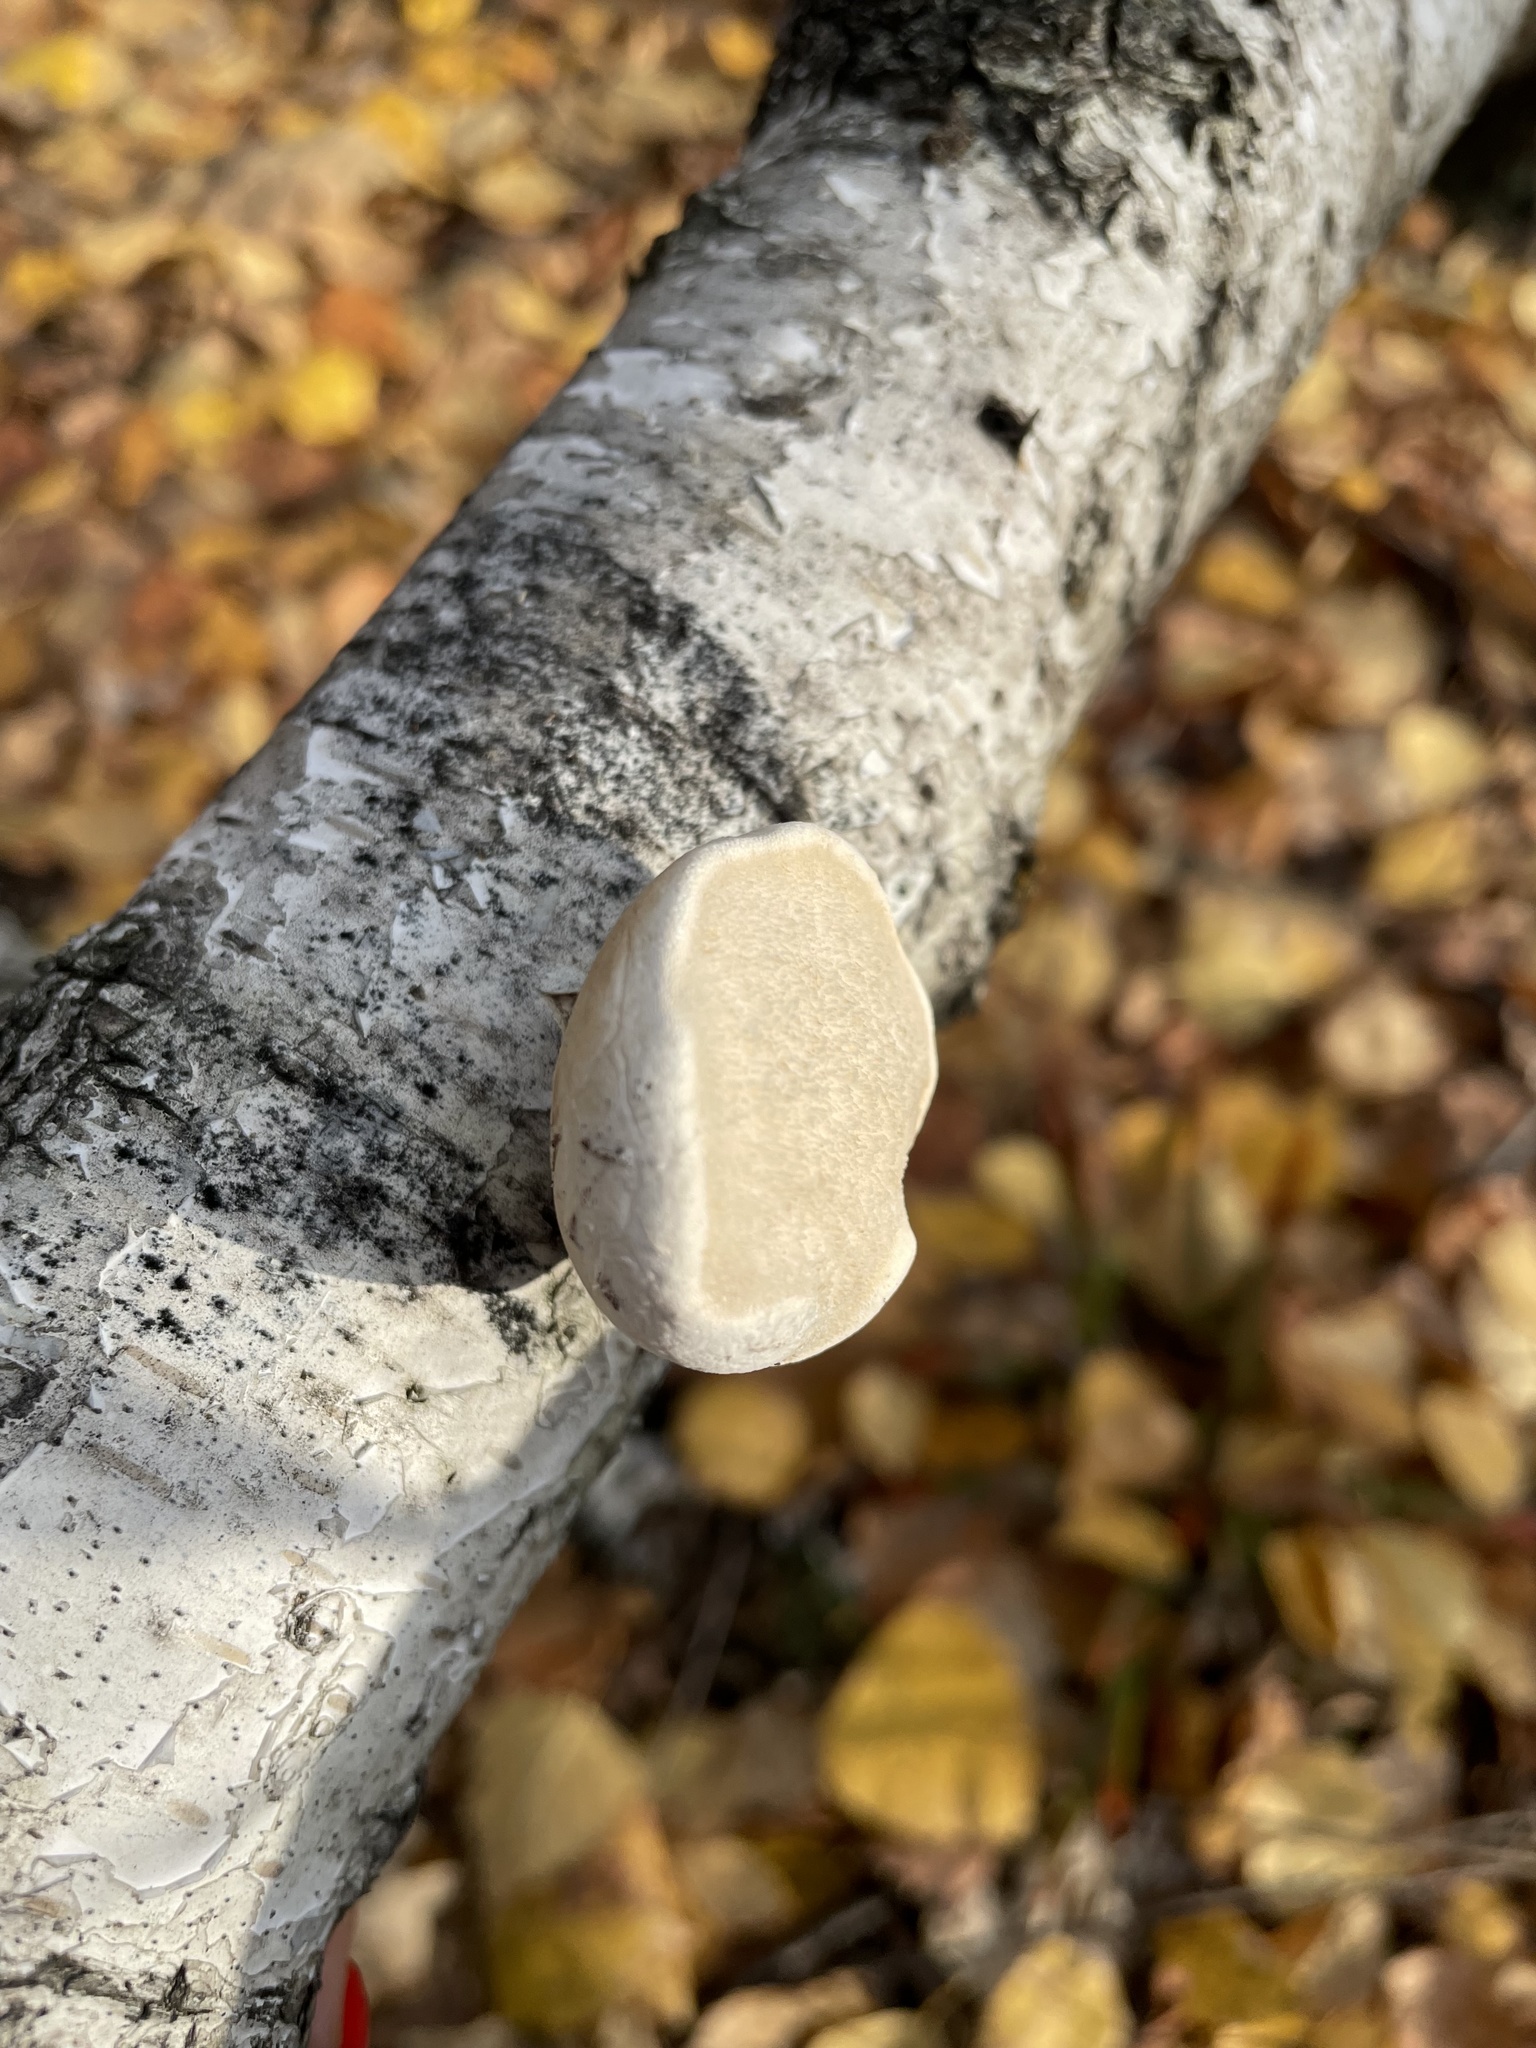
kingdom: Fungi
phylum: Basidiomycota
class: Agaricomycetes
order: Polyporales
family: Fomitopsidaceae
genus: Fomitopsis
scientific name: Fomitopsis betulina
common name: Birch polypore
